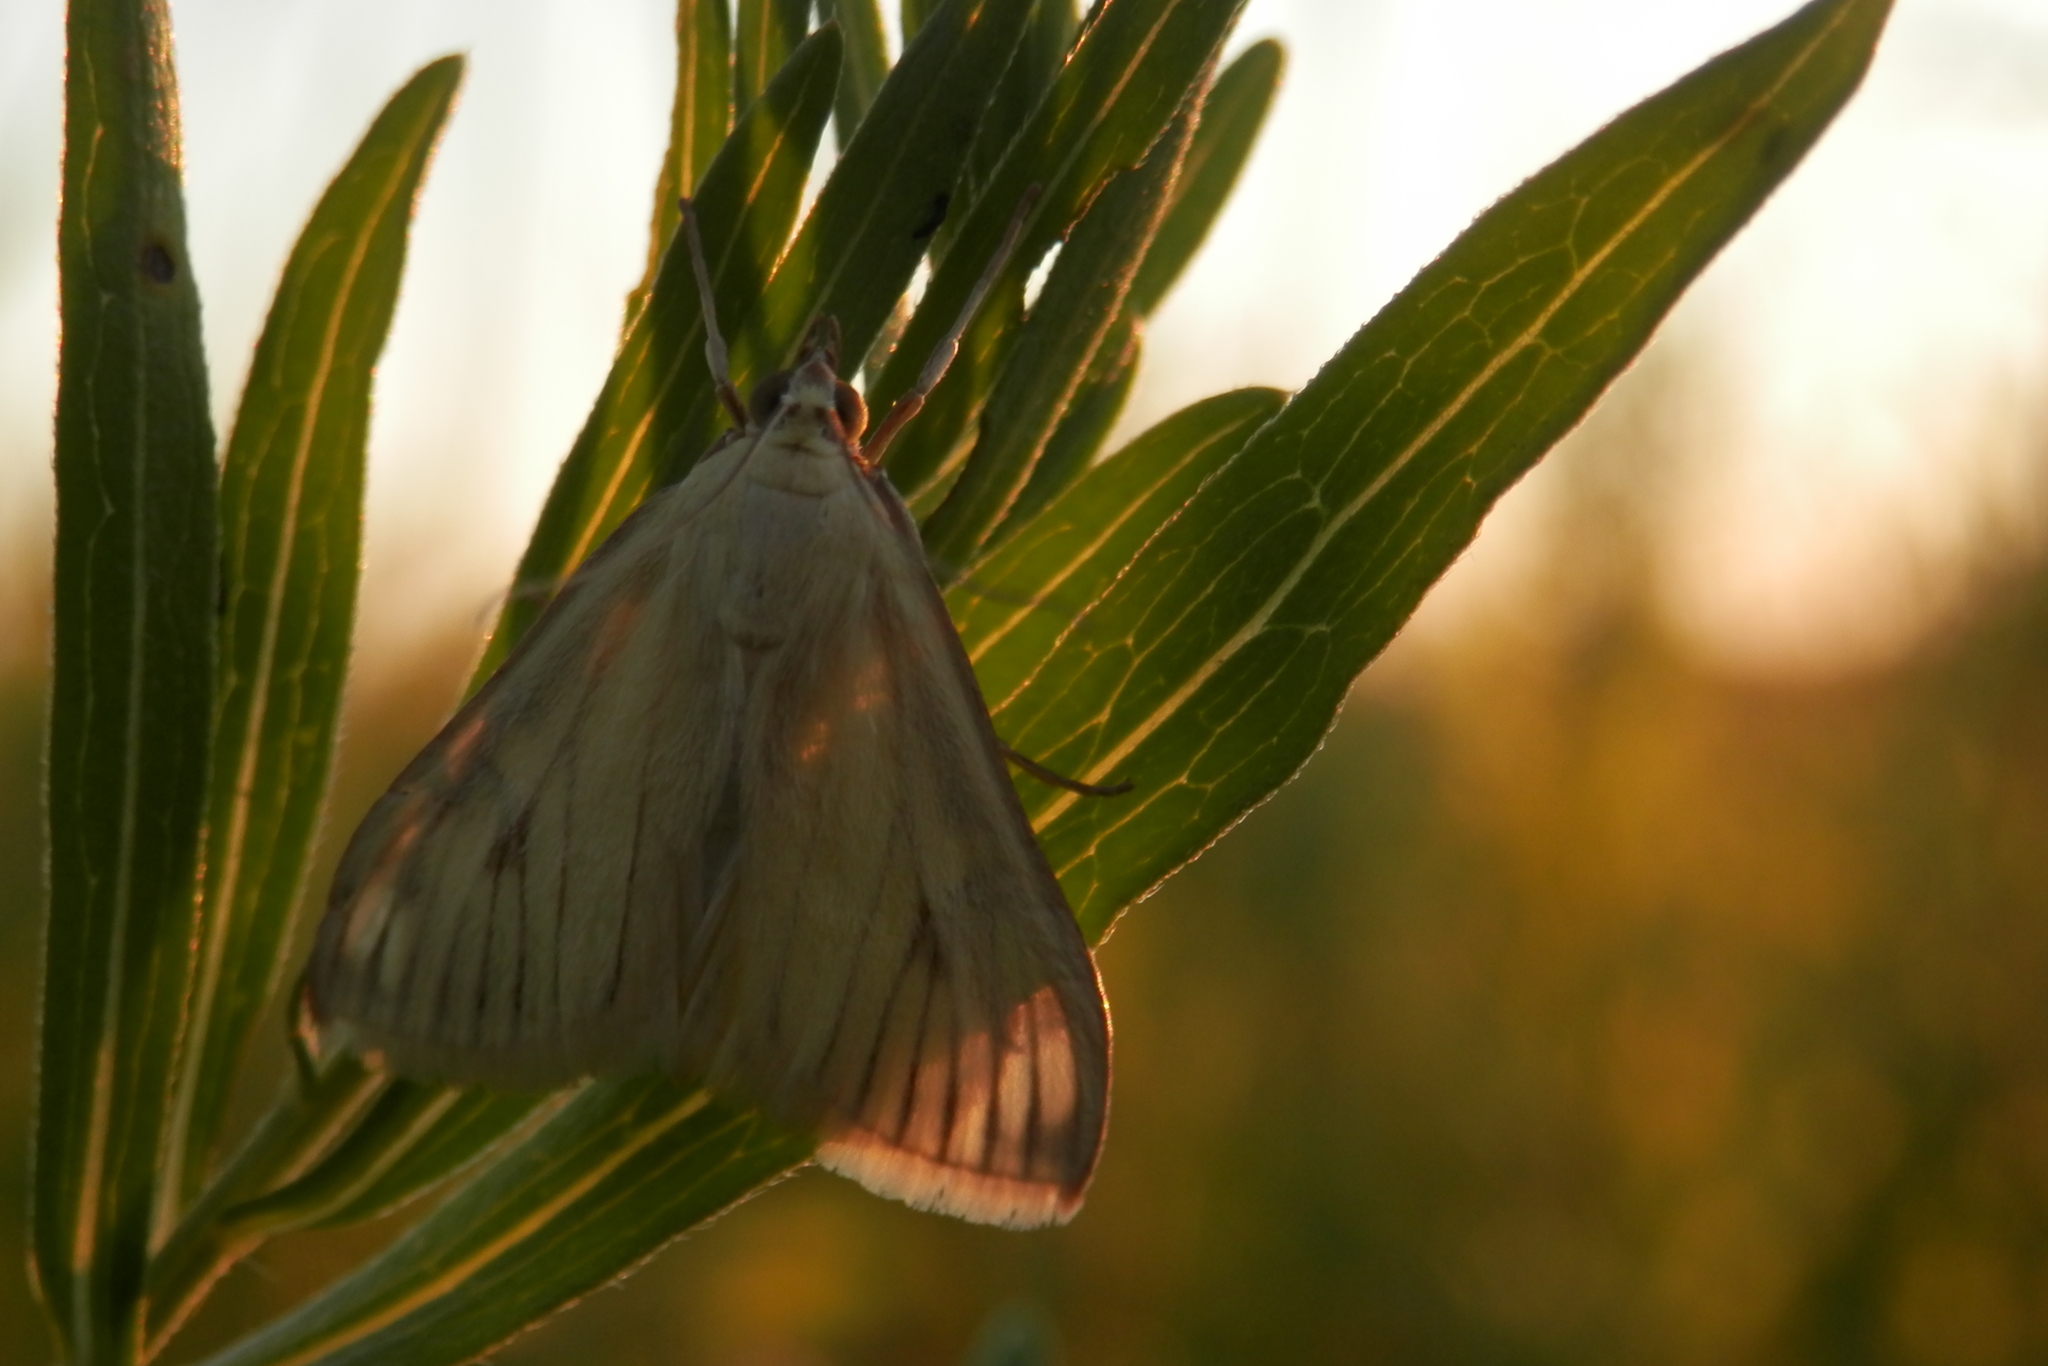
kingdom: Animalia
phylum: Arthropoda
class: Insecta
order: Lepidoptera
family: Crambidae
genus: Sitochroa
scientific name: Sitochroa palealis
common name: Greenish-yellow sitochroa moth
